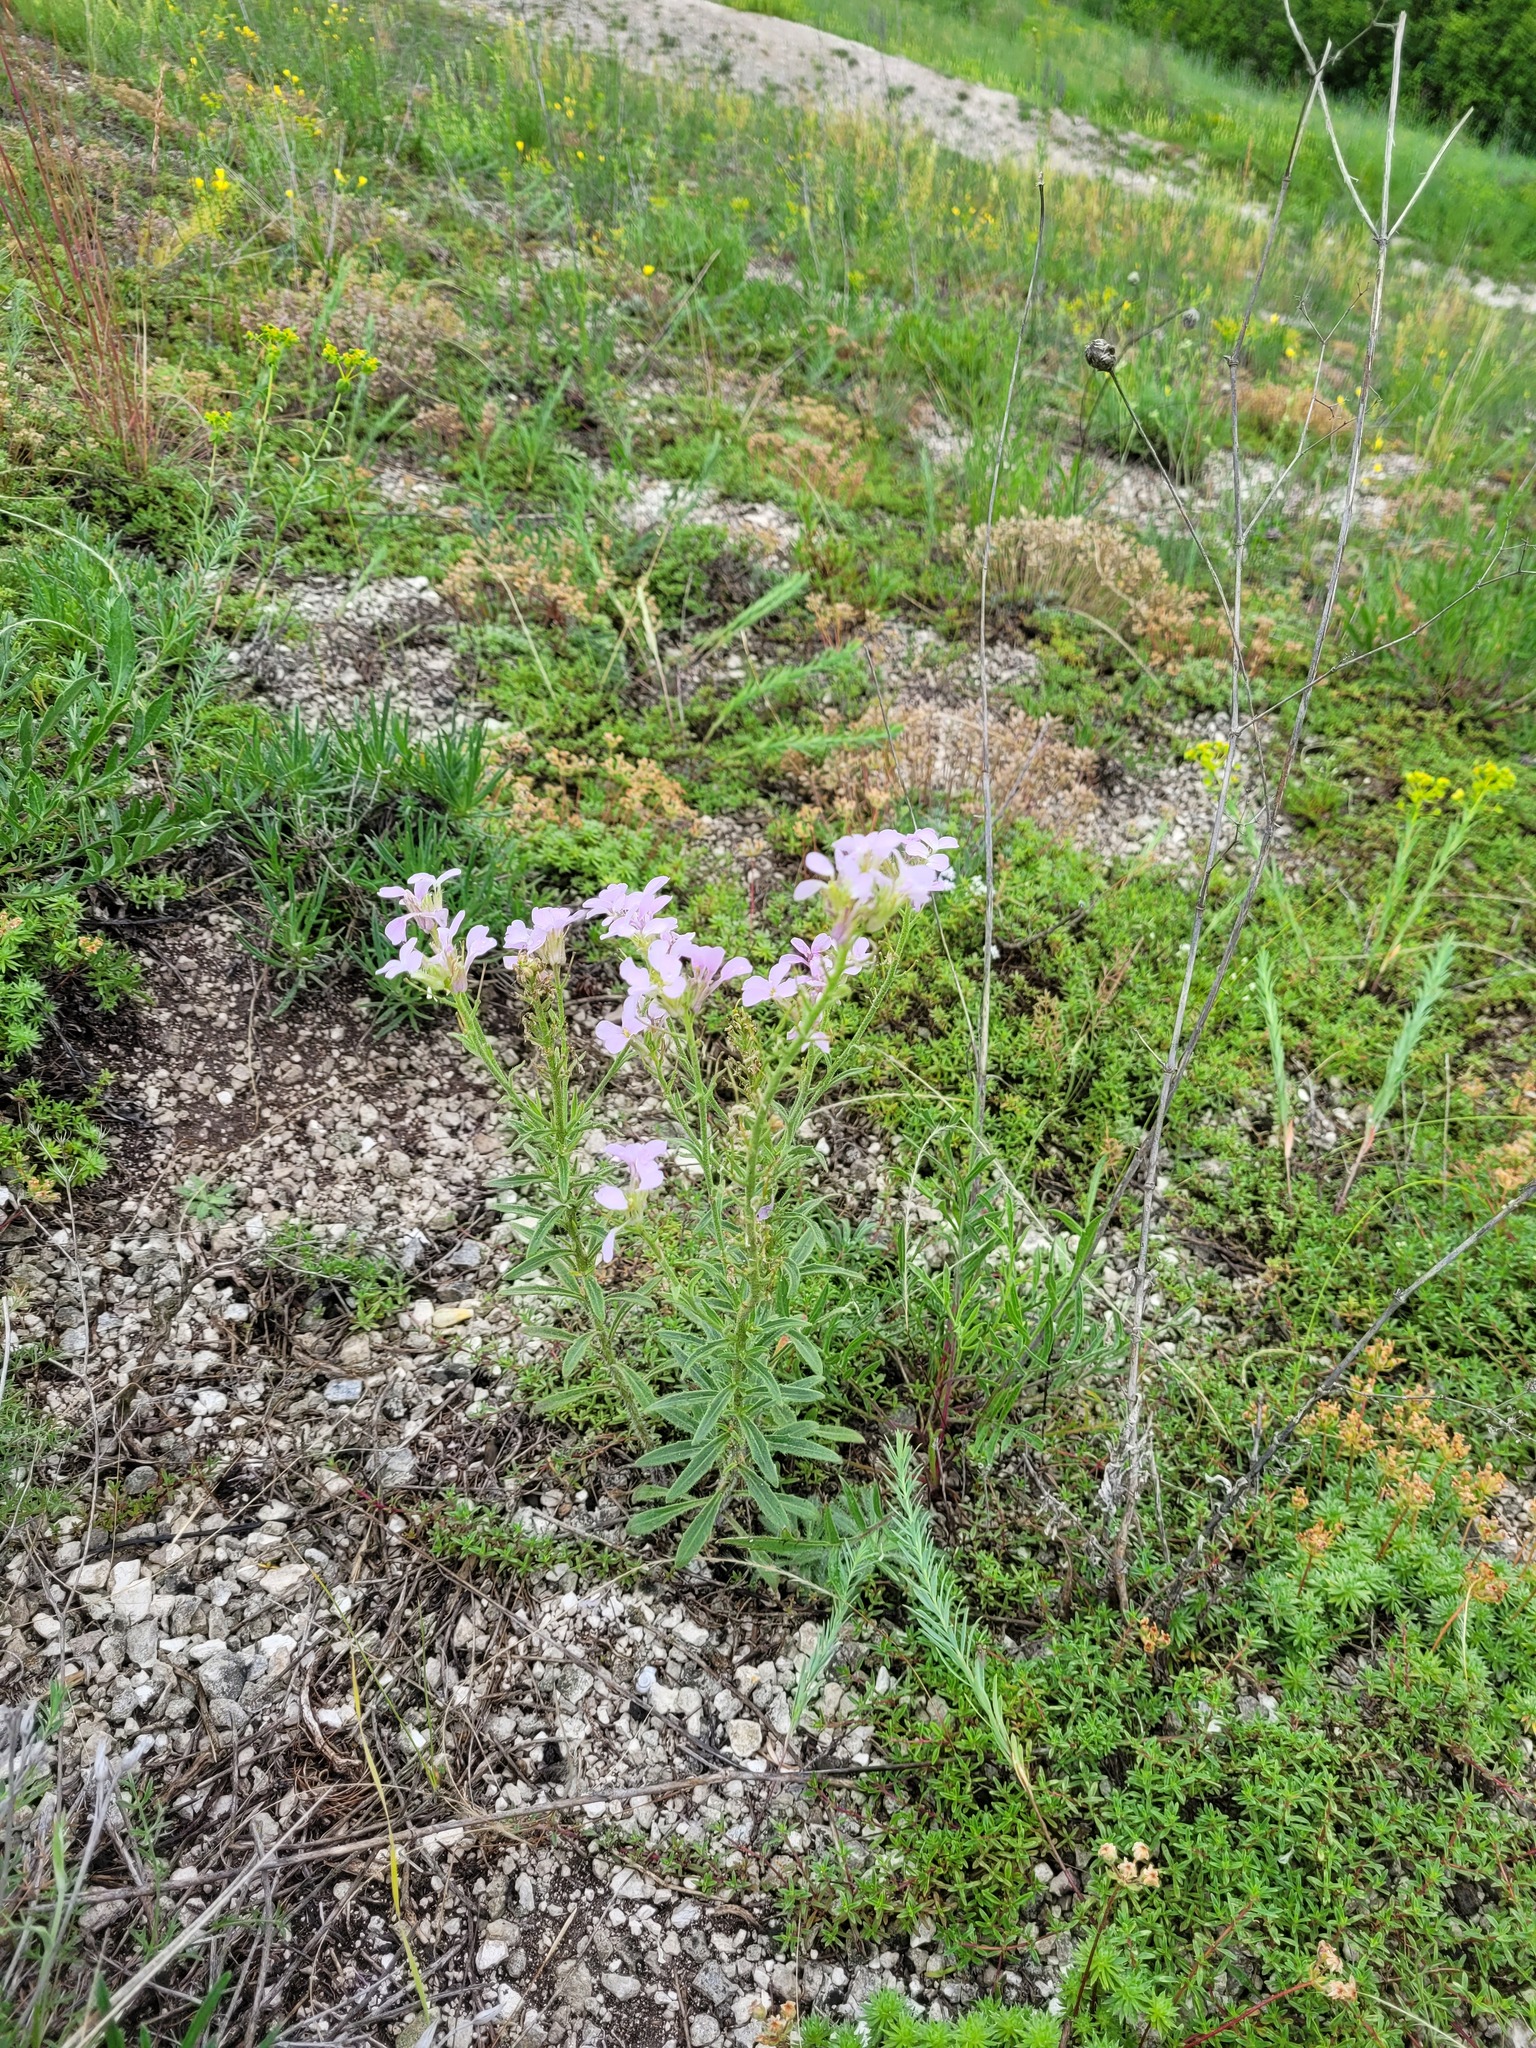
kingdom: Plantae
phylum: Tracheophyta
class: Magnoliopsida
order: Brassicales
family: Brassicaceae
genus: Clausia
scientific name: Clausia aprica
